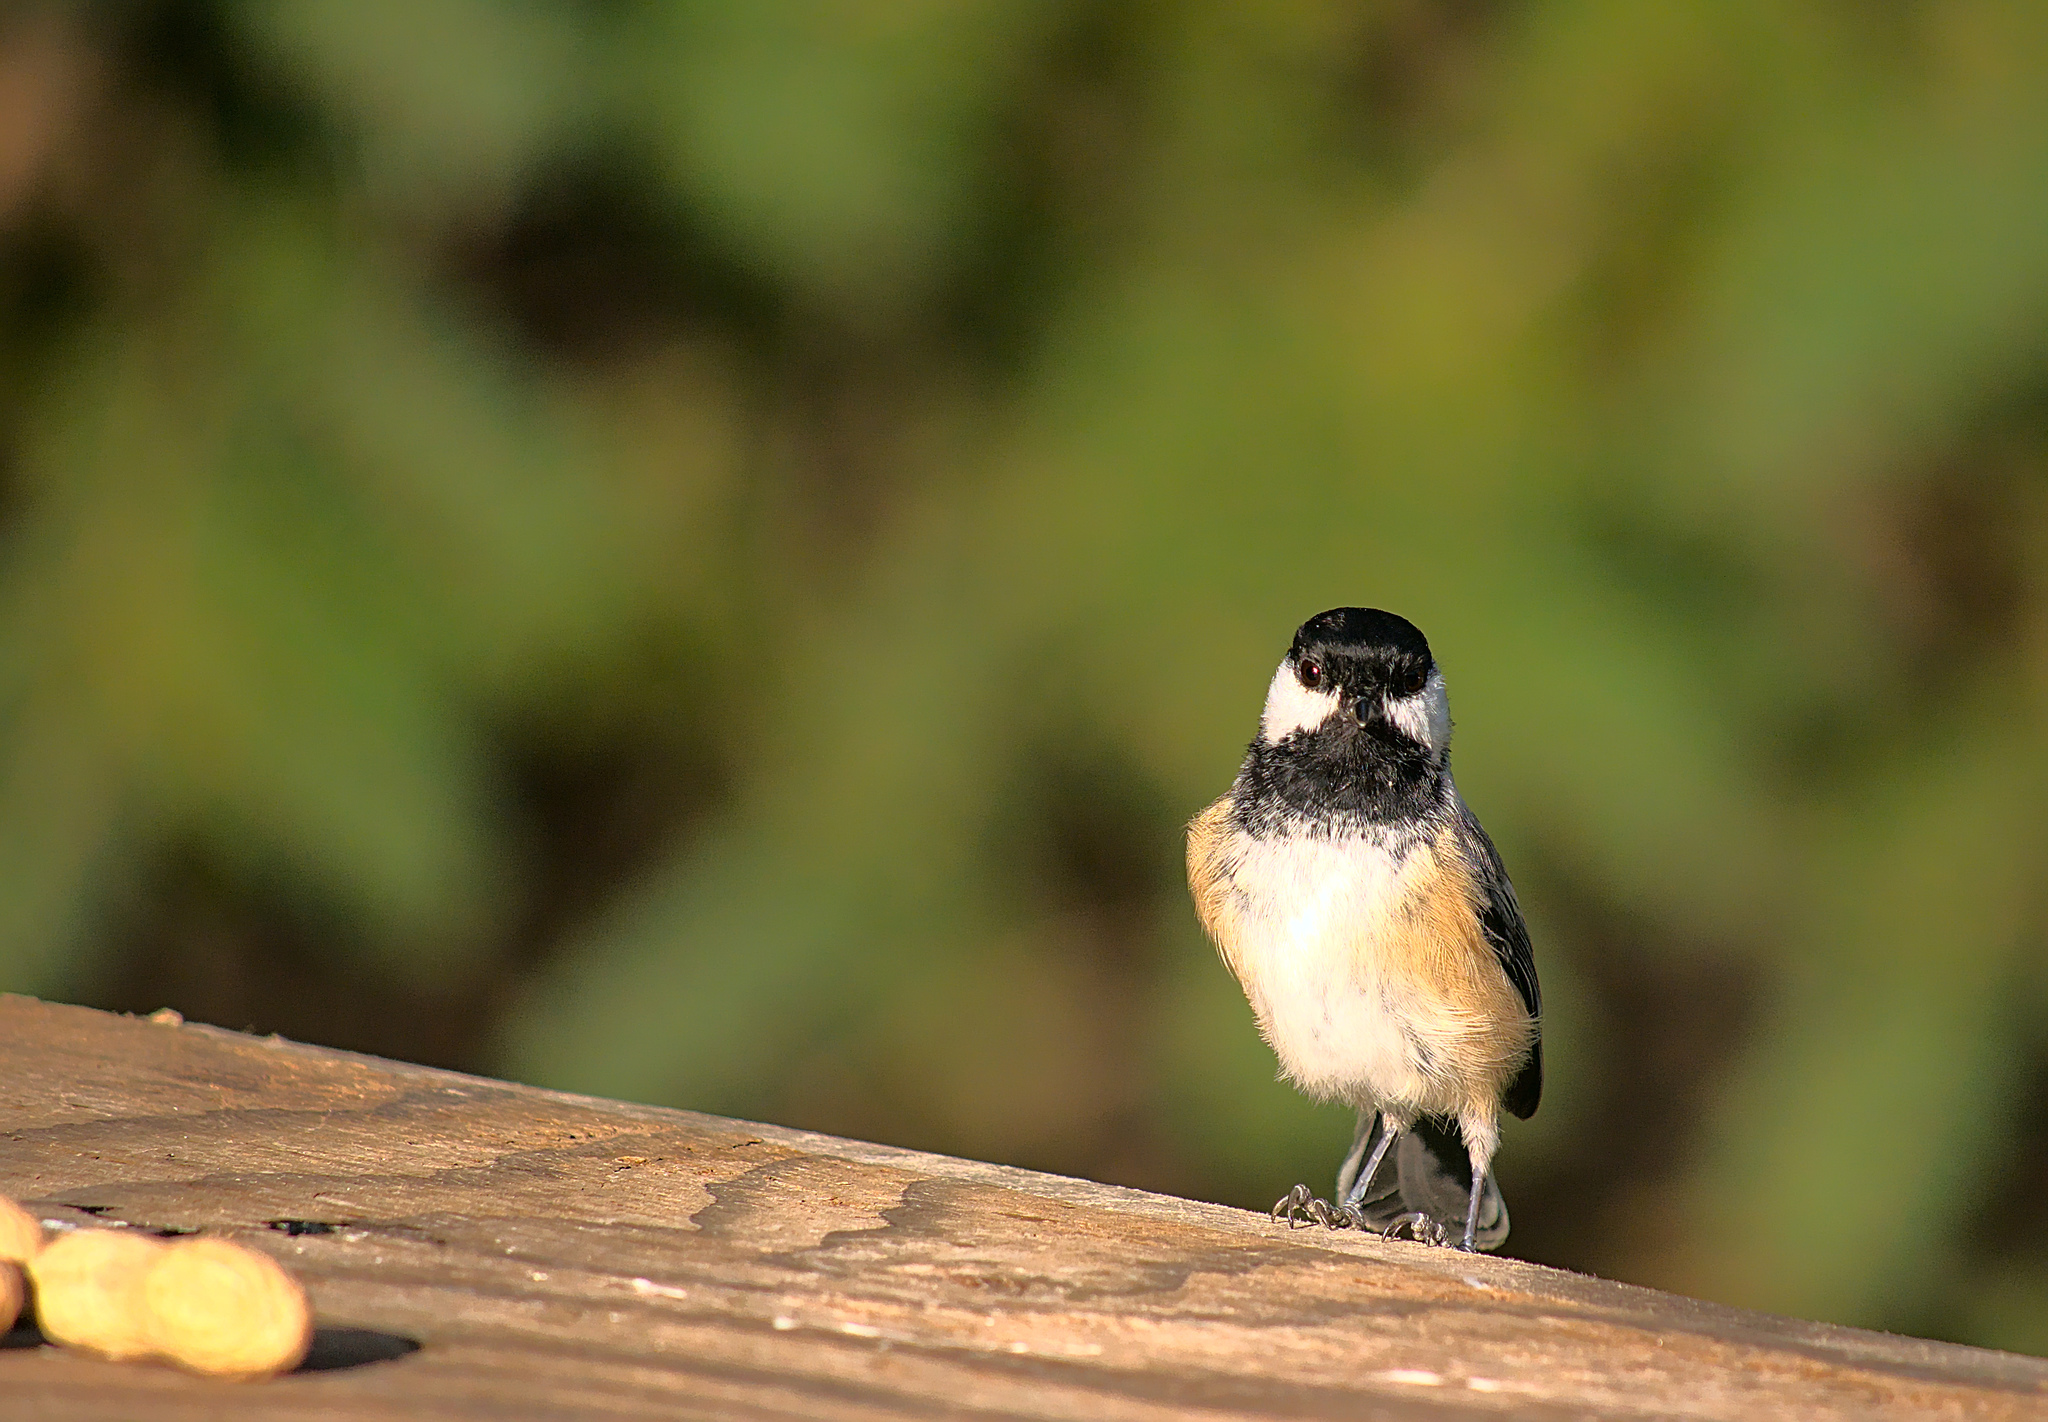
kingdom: Animalia
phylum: Chordata
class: Aves
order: Passeriformes
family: Paridae
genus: Poecile
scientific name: Poecile atricapillus
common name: Black-capped chickadee
